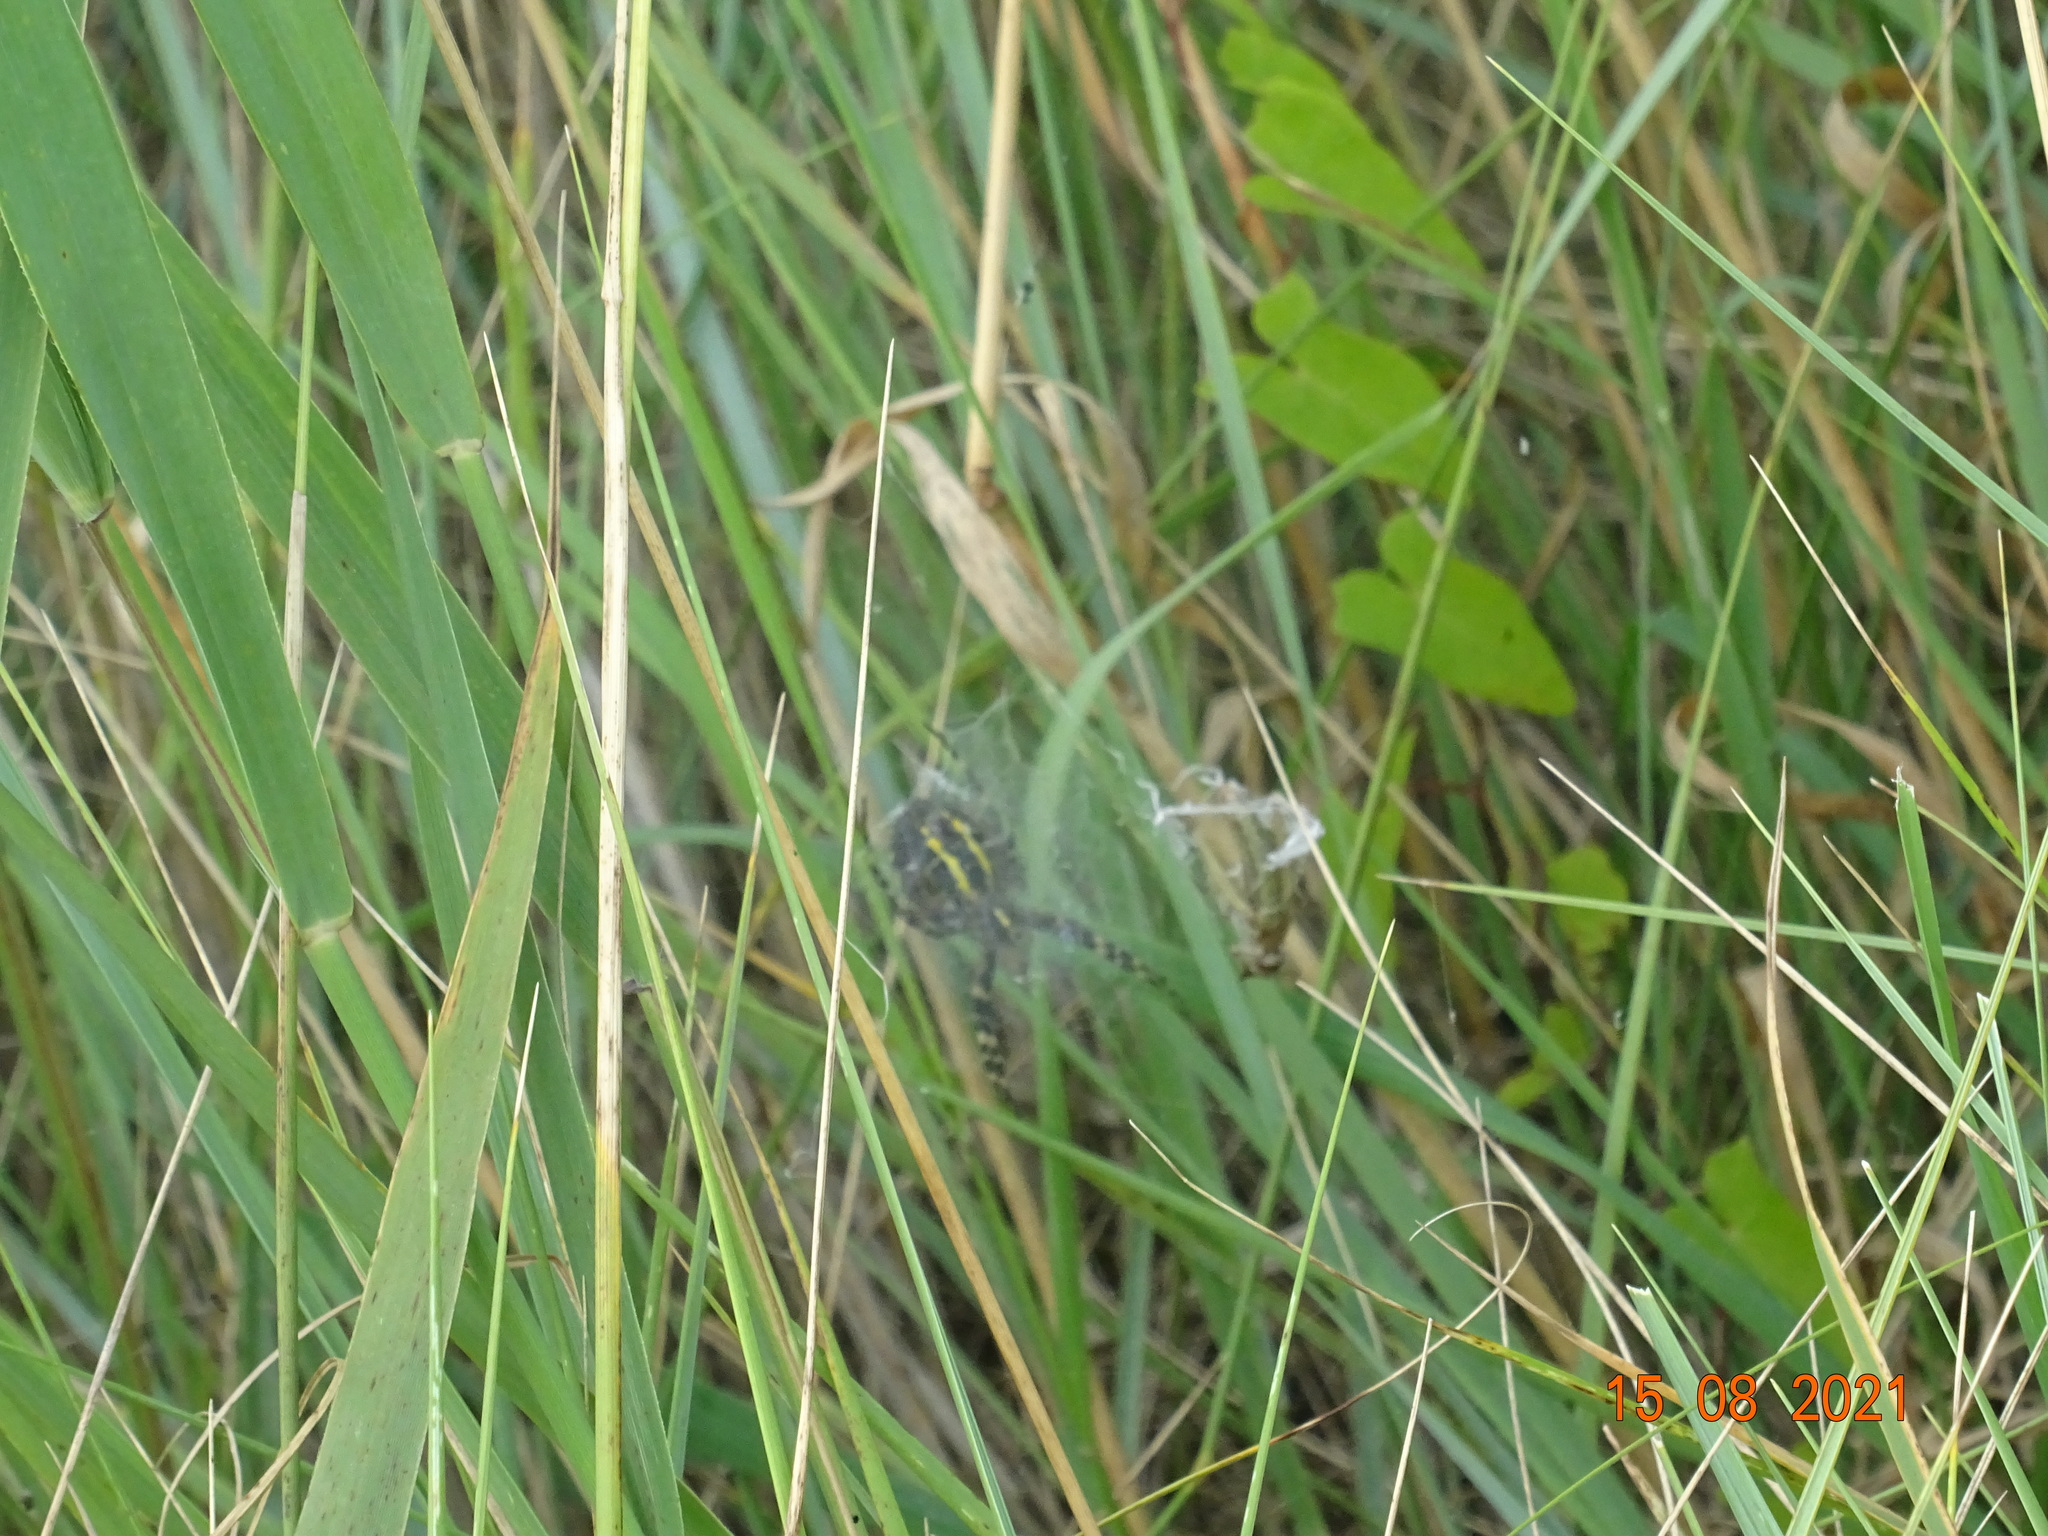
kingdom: Animalia
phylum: Arthropoda
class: Arachnida
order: Araneae
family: Araneidae
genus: Argiope
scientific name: Argiope bruennichi
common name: Wasp spider
